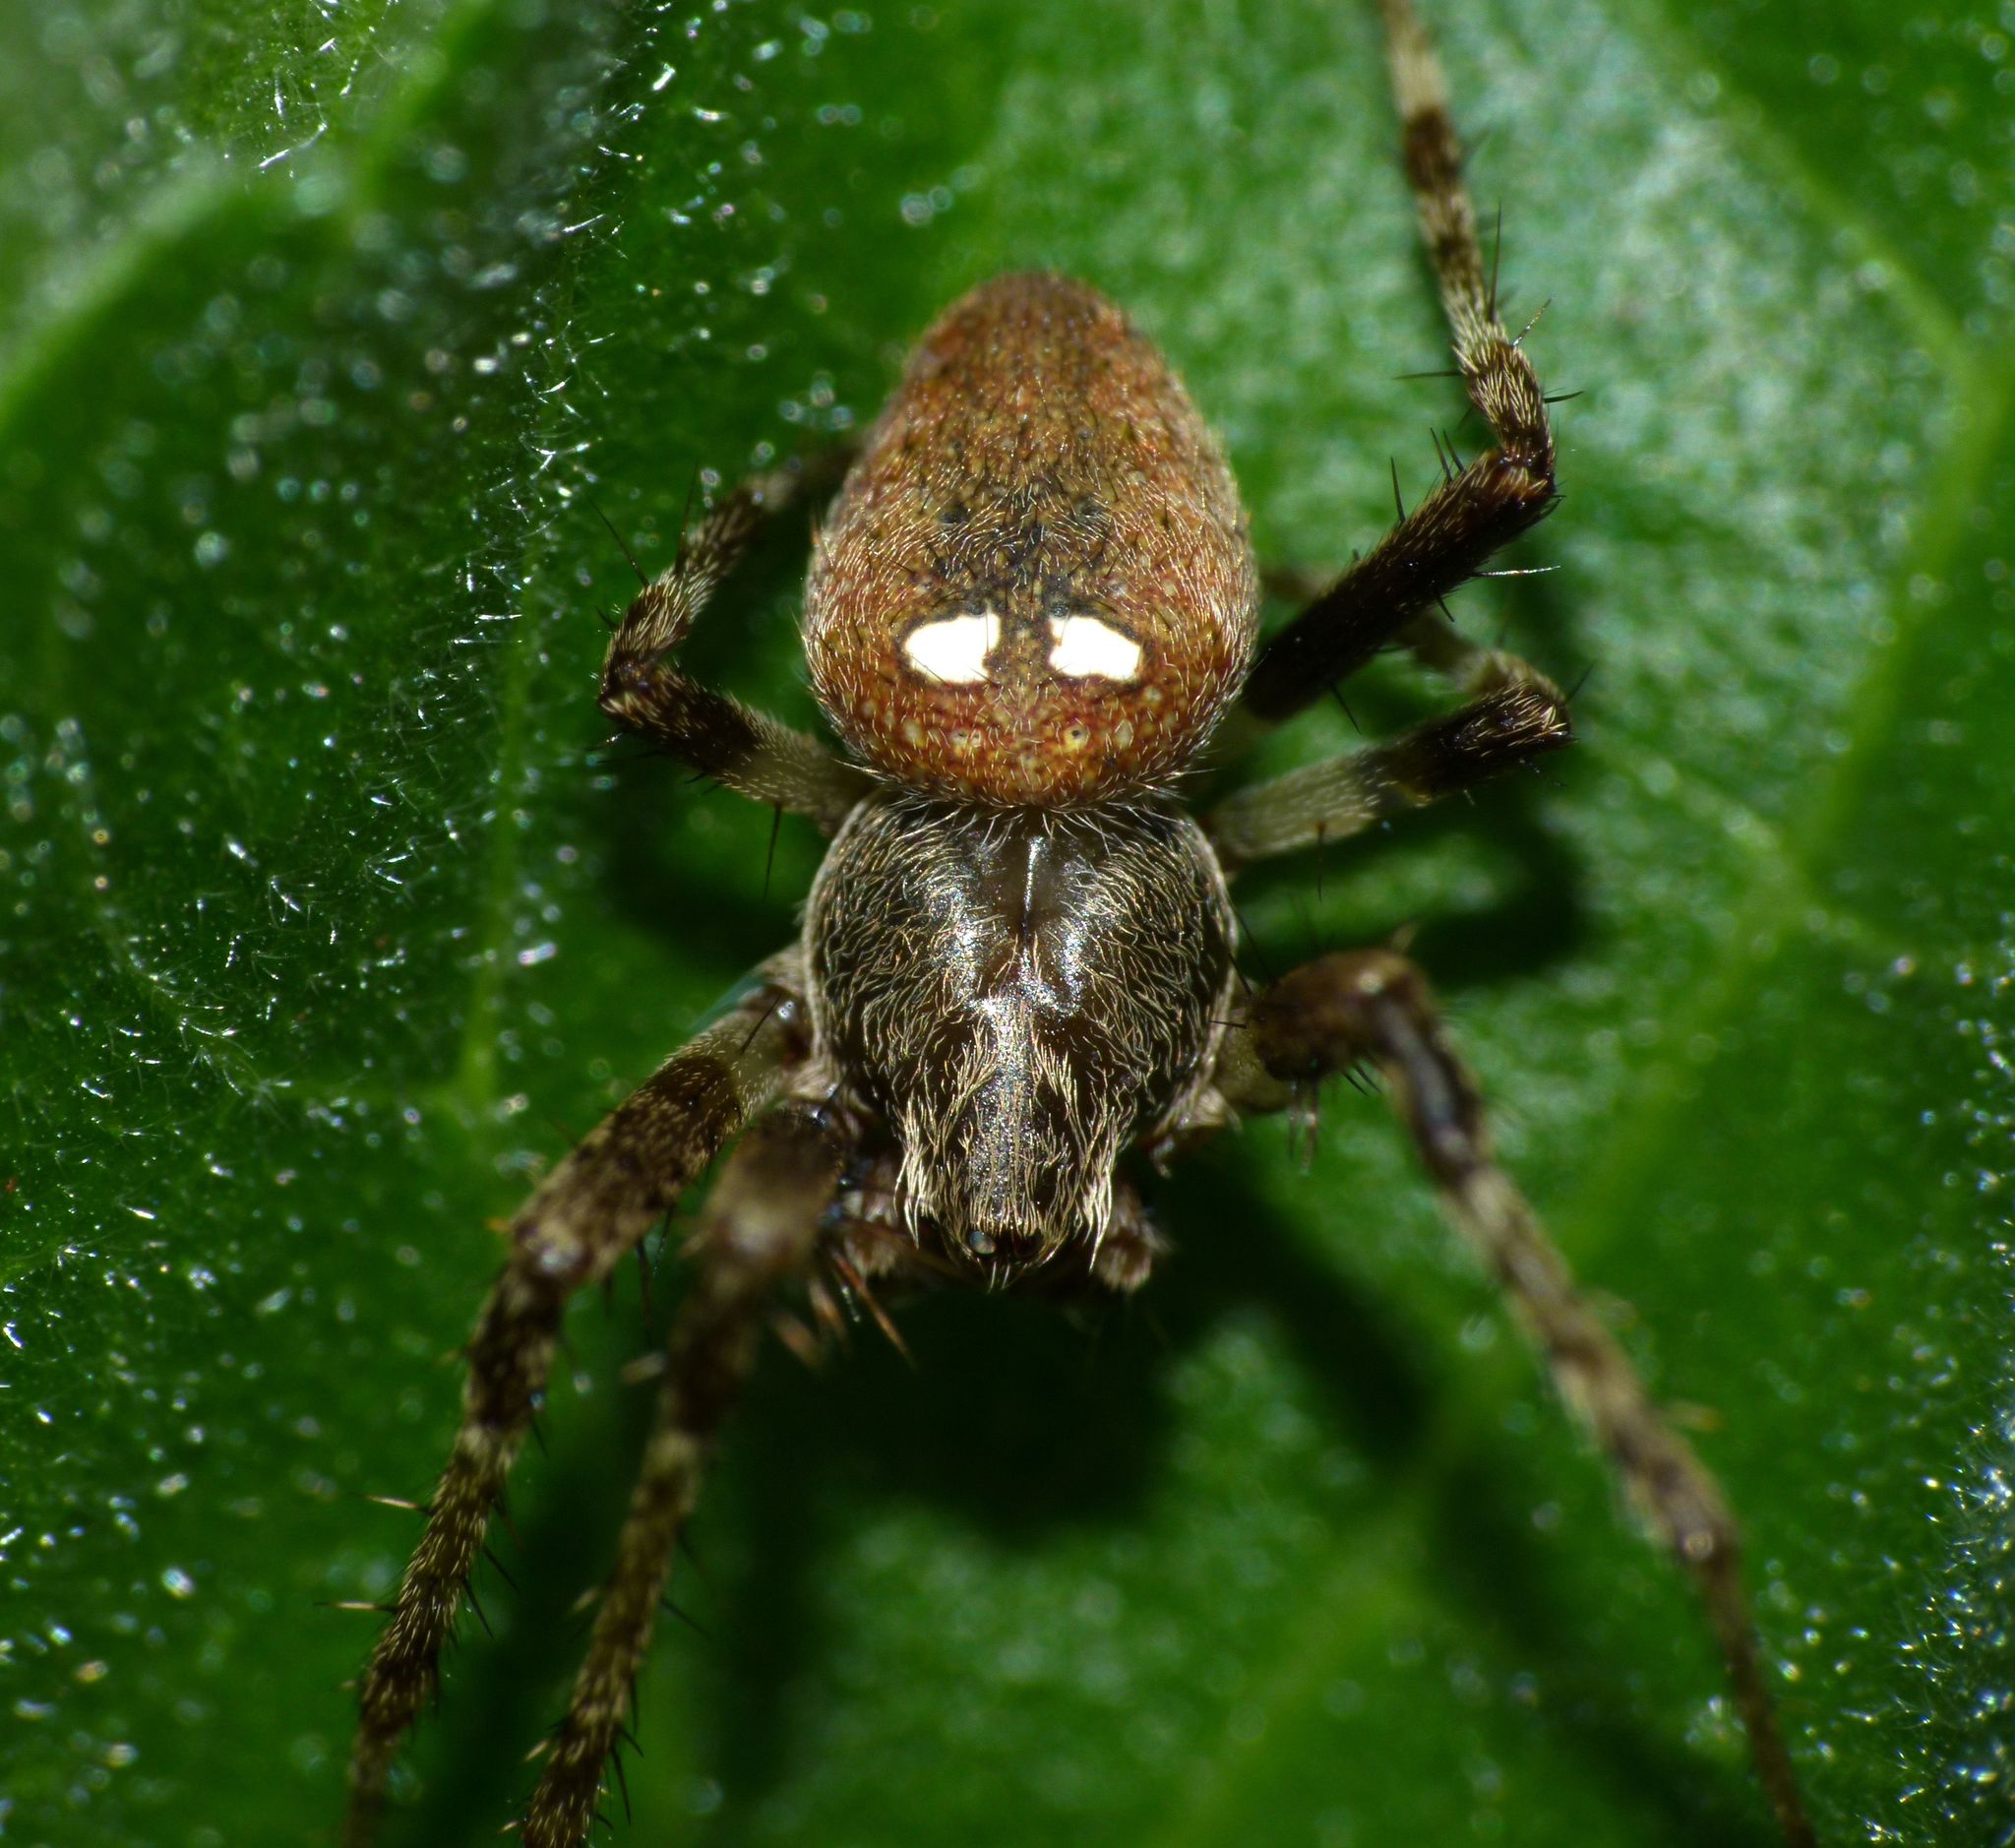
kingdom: Animalia
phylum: Arthropoda
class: Arachnida
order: Araneae
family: Araneidae
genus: Zealaranea
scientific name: Zealaranea crassa
